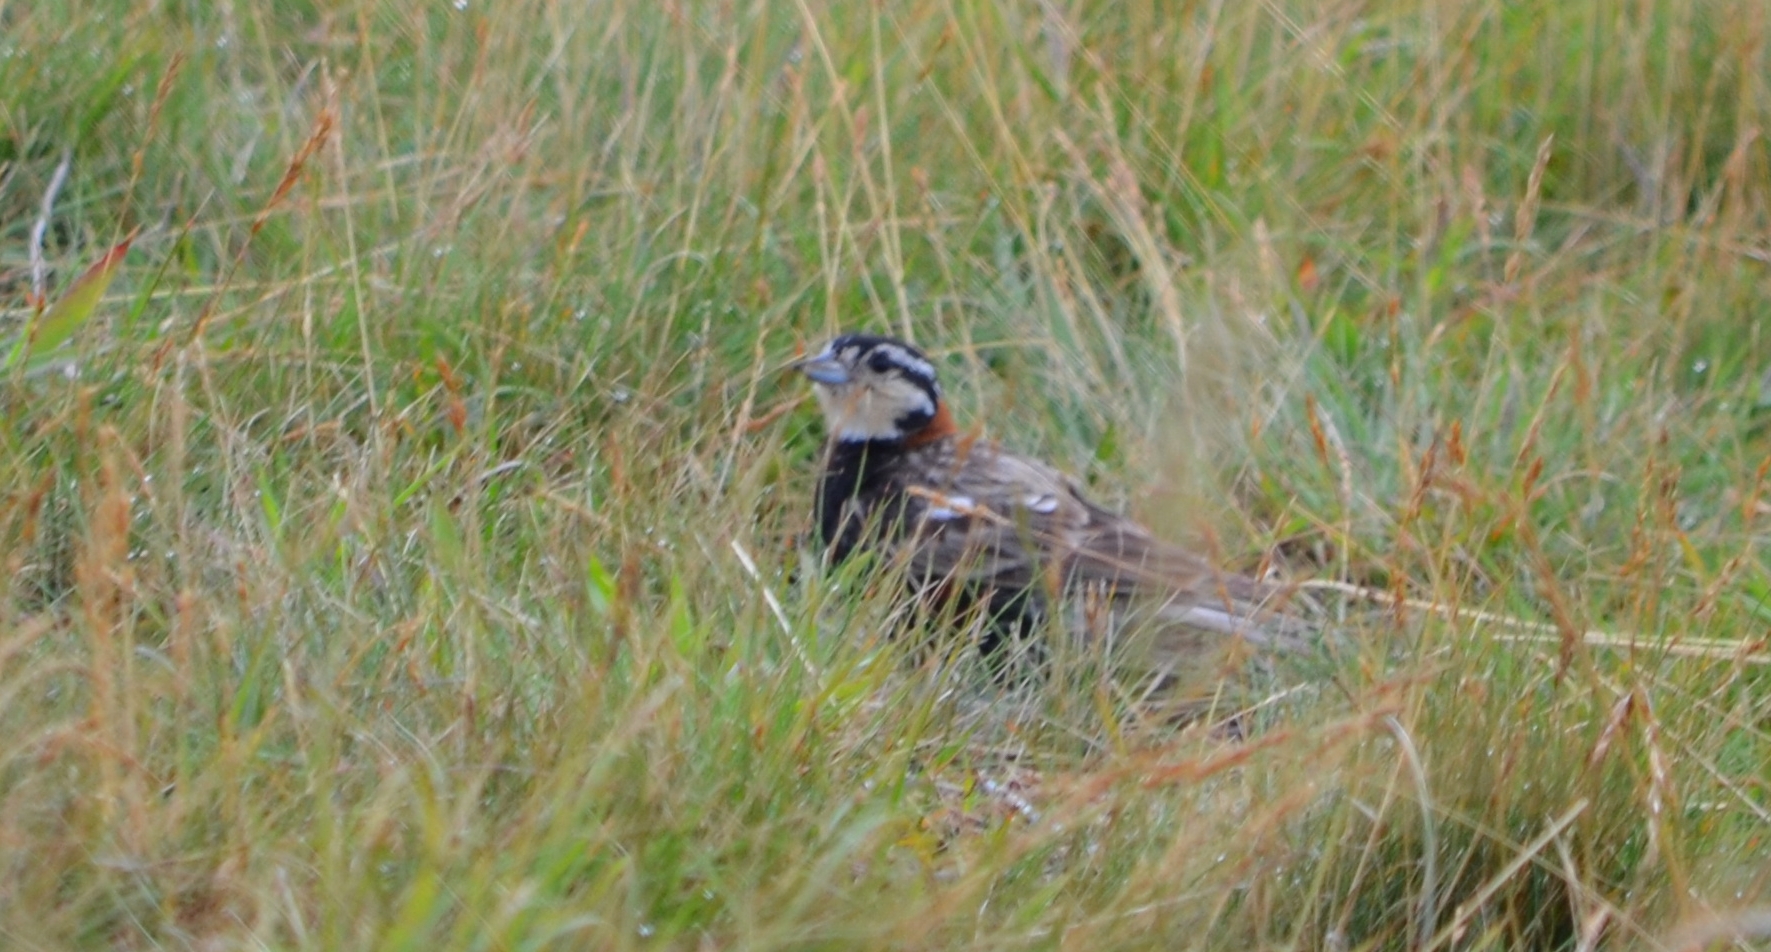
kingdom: Animalia
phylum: Chordata
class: Aves
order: Passeriformes
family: Calcariidae
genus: Calcarius
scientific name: Calcarius ornatus
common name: Chestnut-collared longspur
